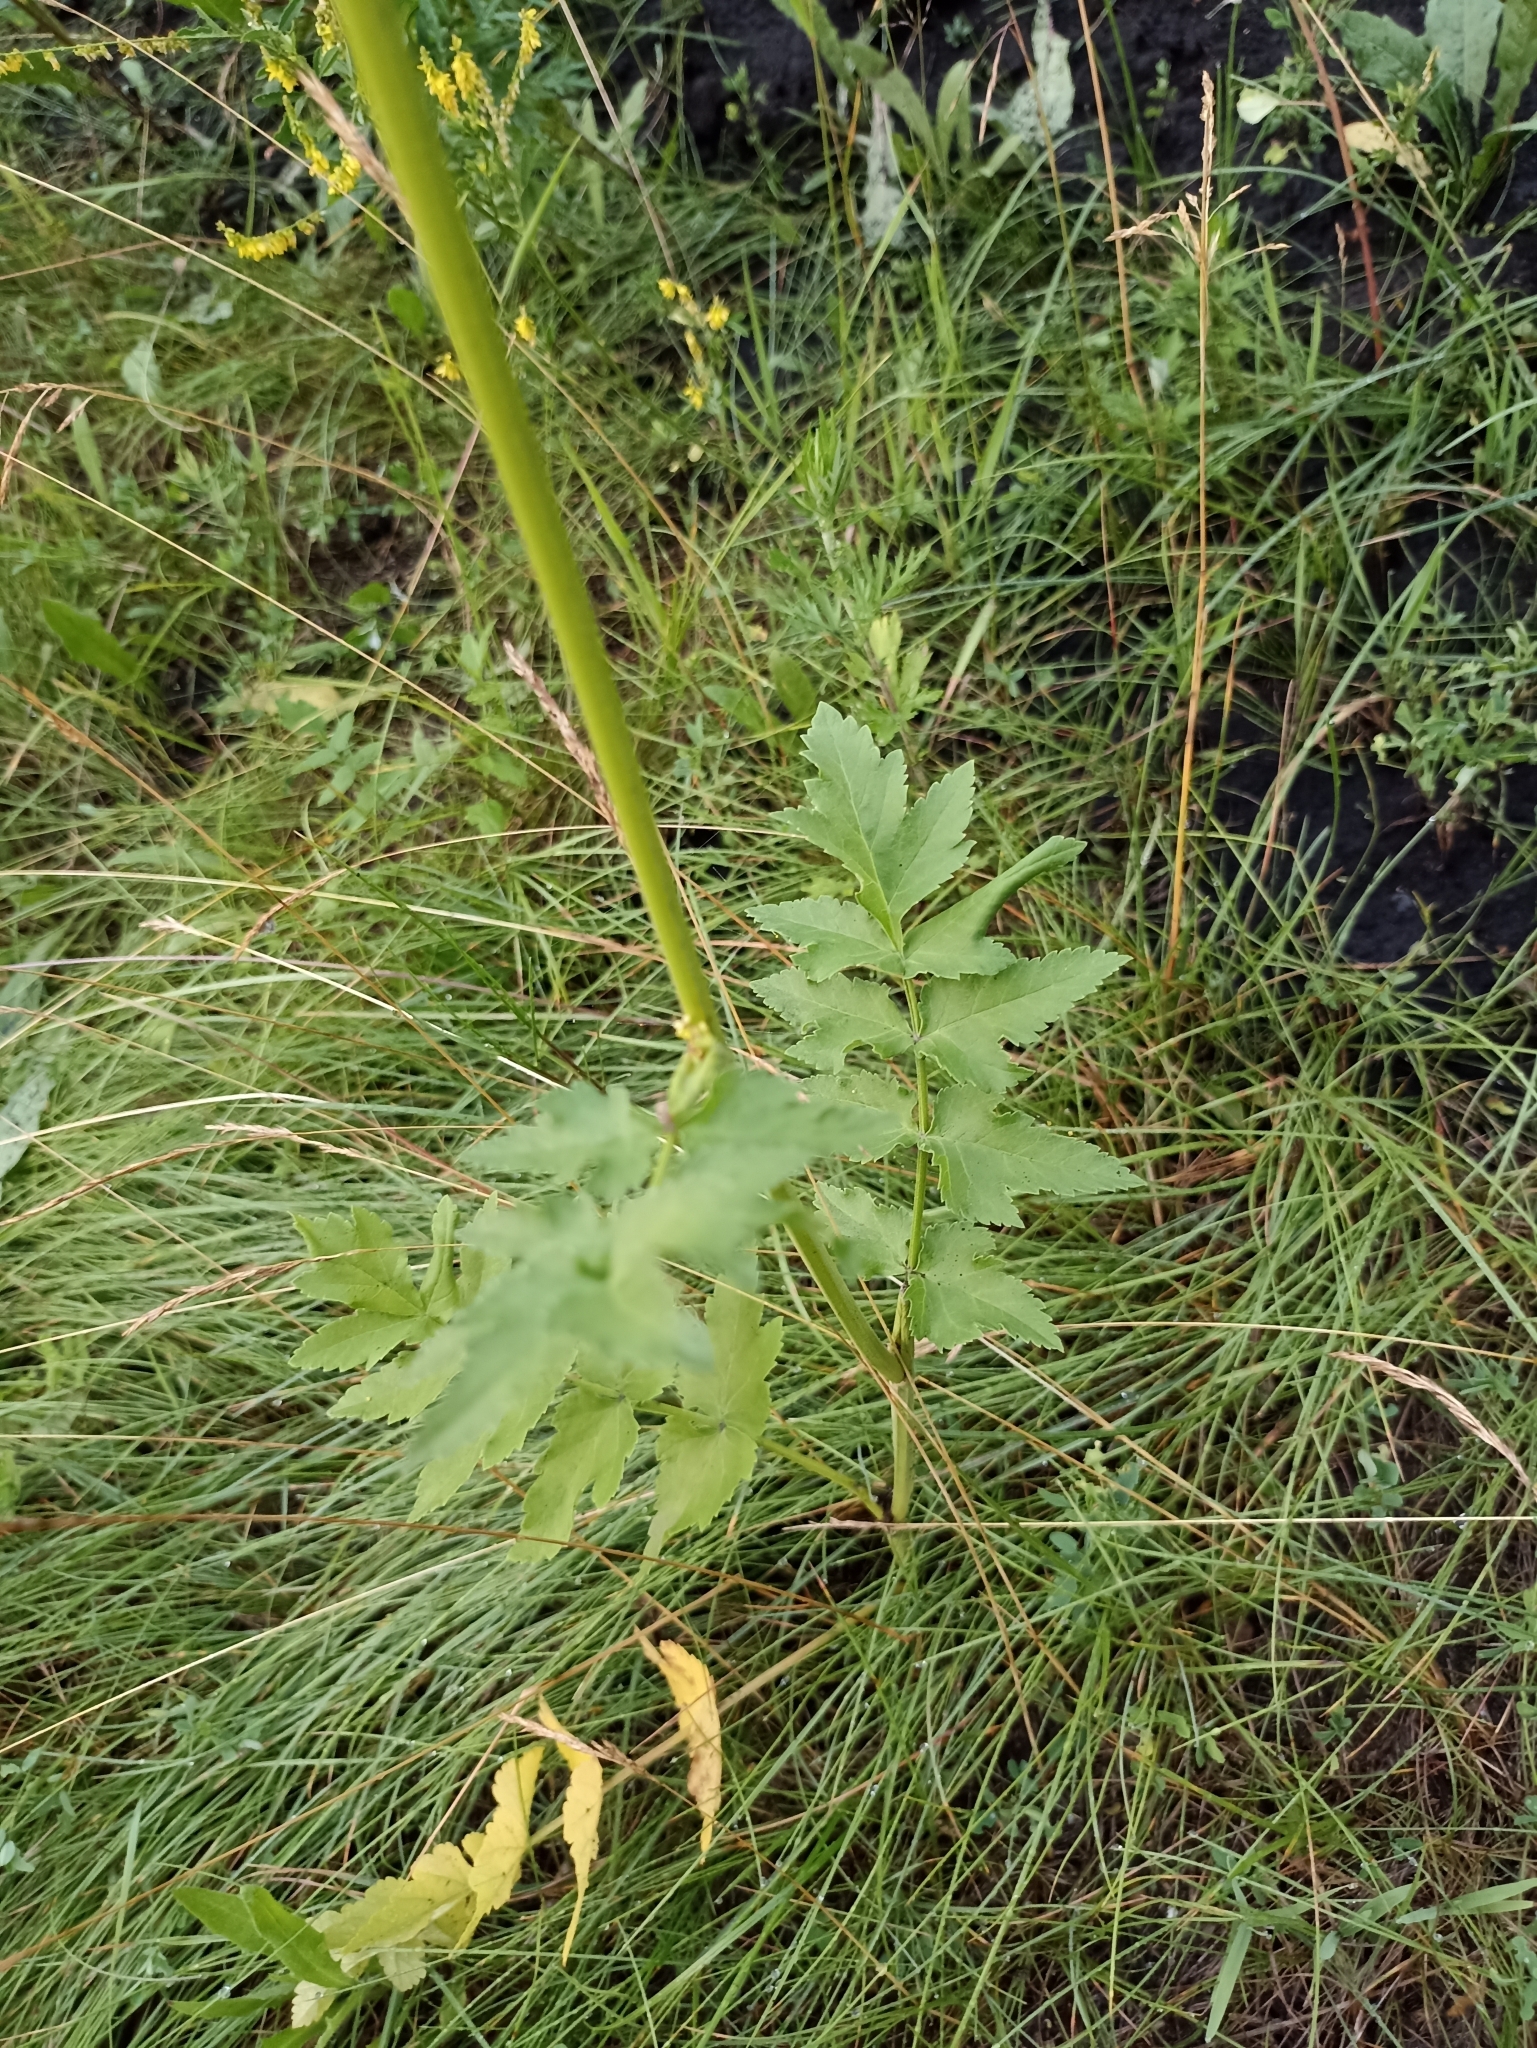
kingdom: Plantae
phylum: Tracheophyta
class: Magnoliopsida
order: Apiales
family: Apiaceae
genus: Pastinaca
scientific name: Pastinaca sativa
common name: Wild parsnip
